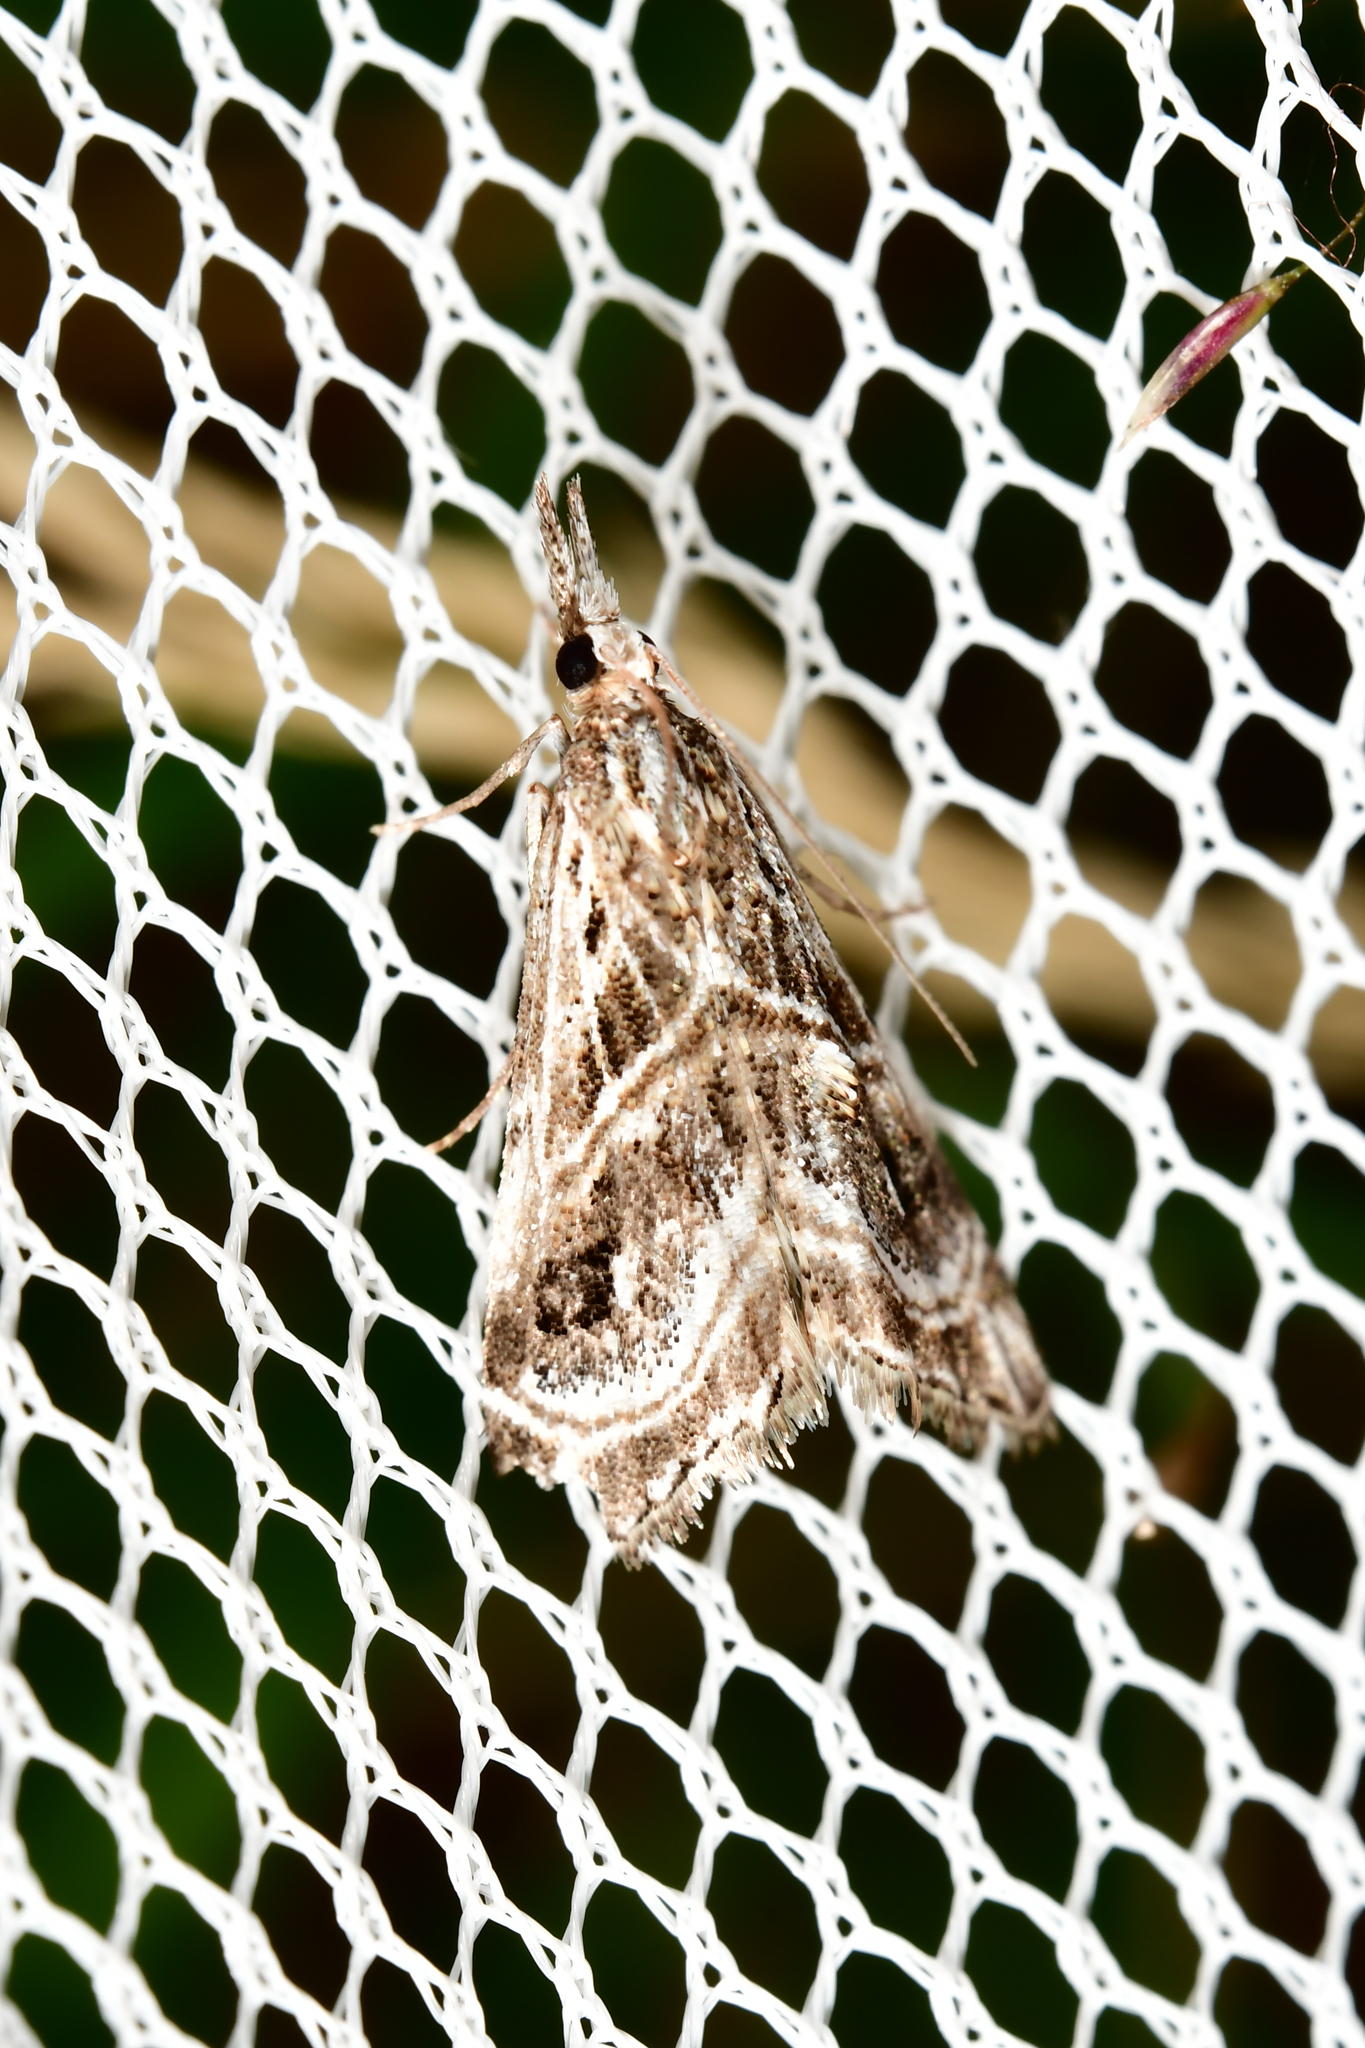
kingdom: Animalia
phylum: Arthropoda
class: Insecta
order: Lepidoptera
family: Crambidae
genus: Gadira
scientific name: Gadira acerella
